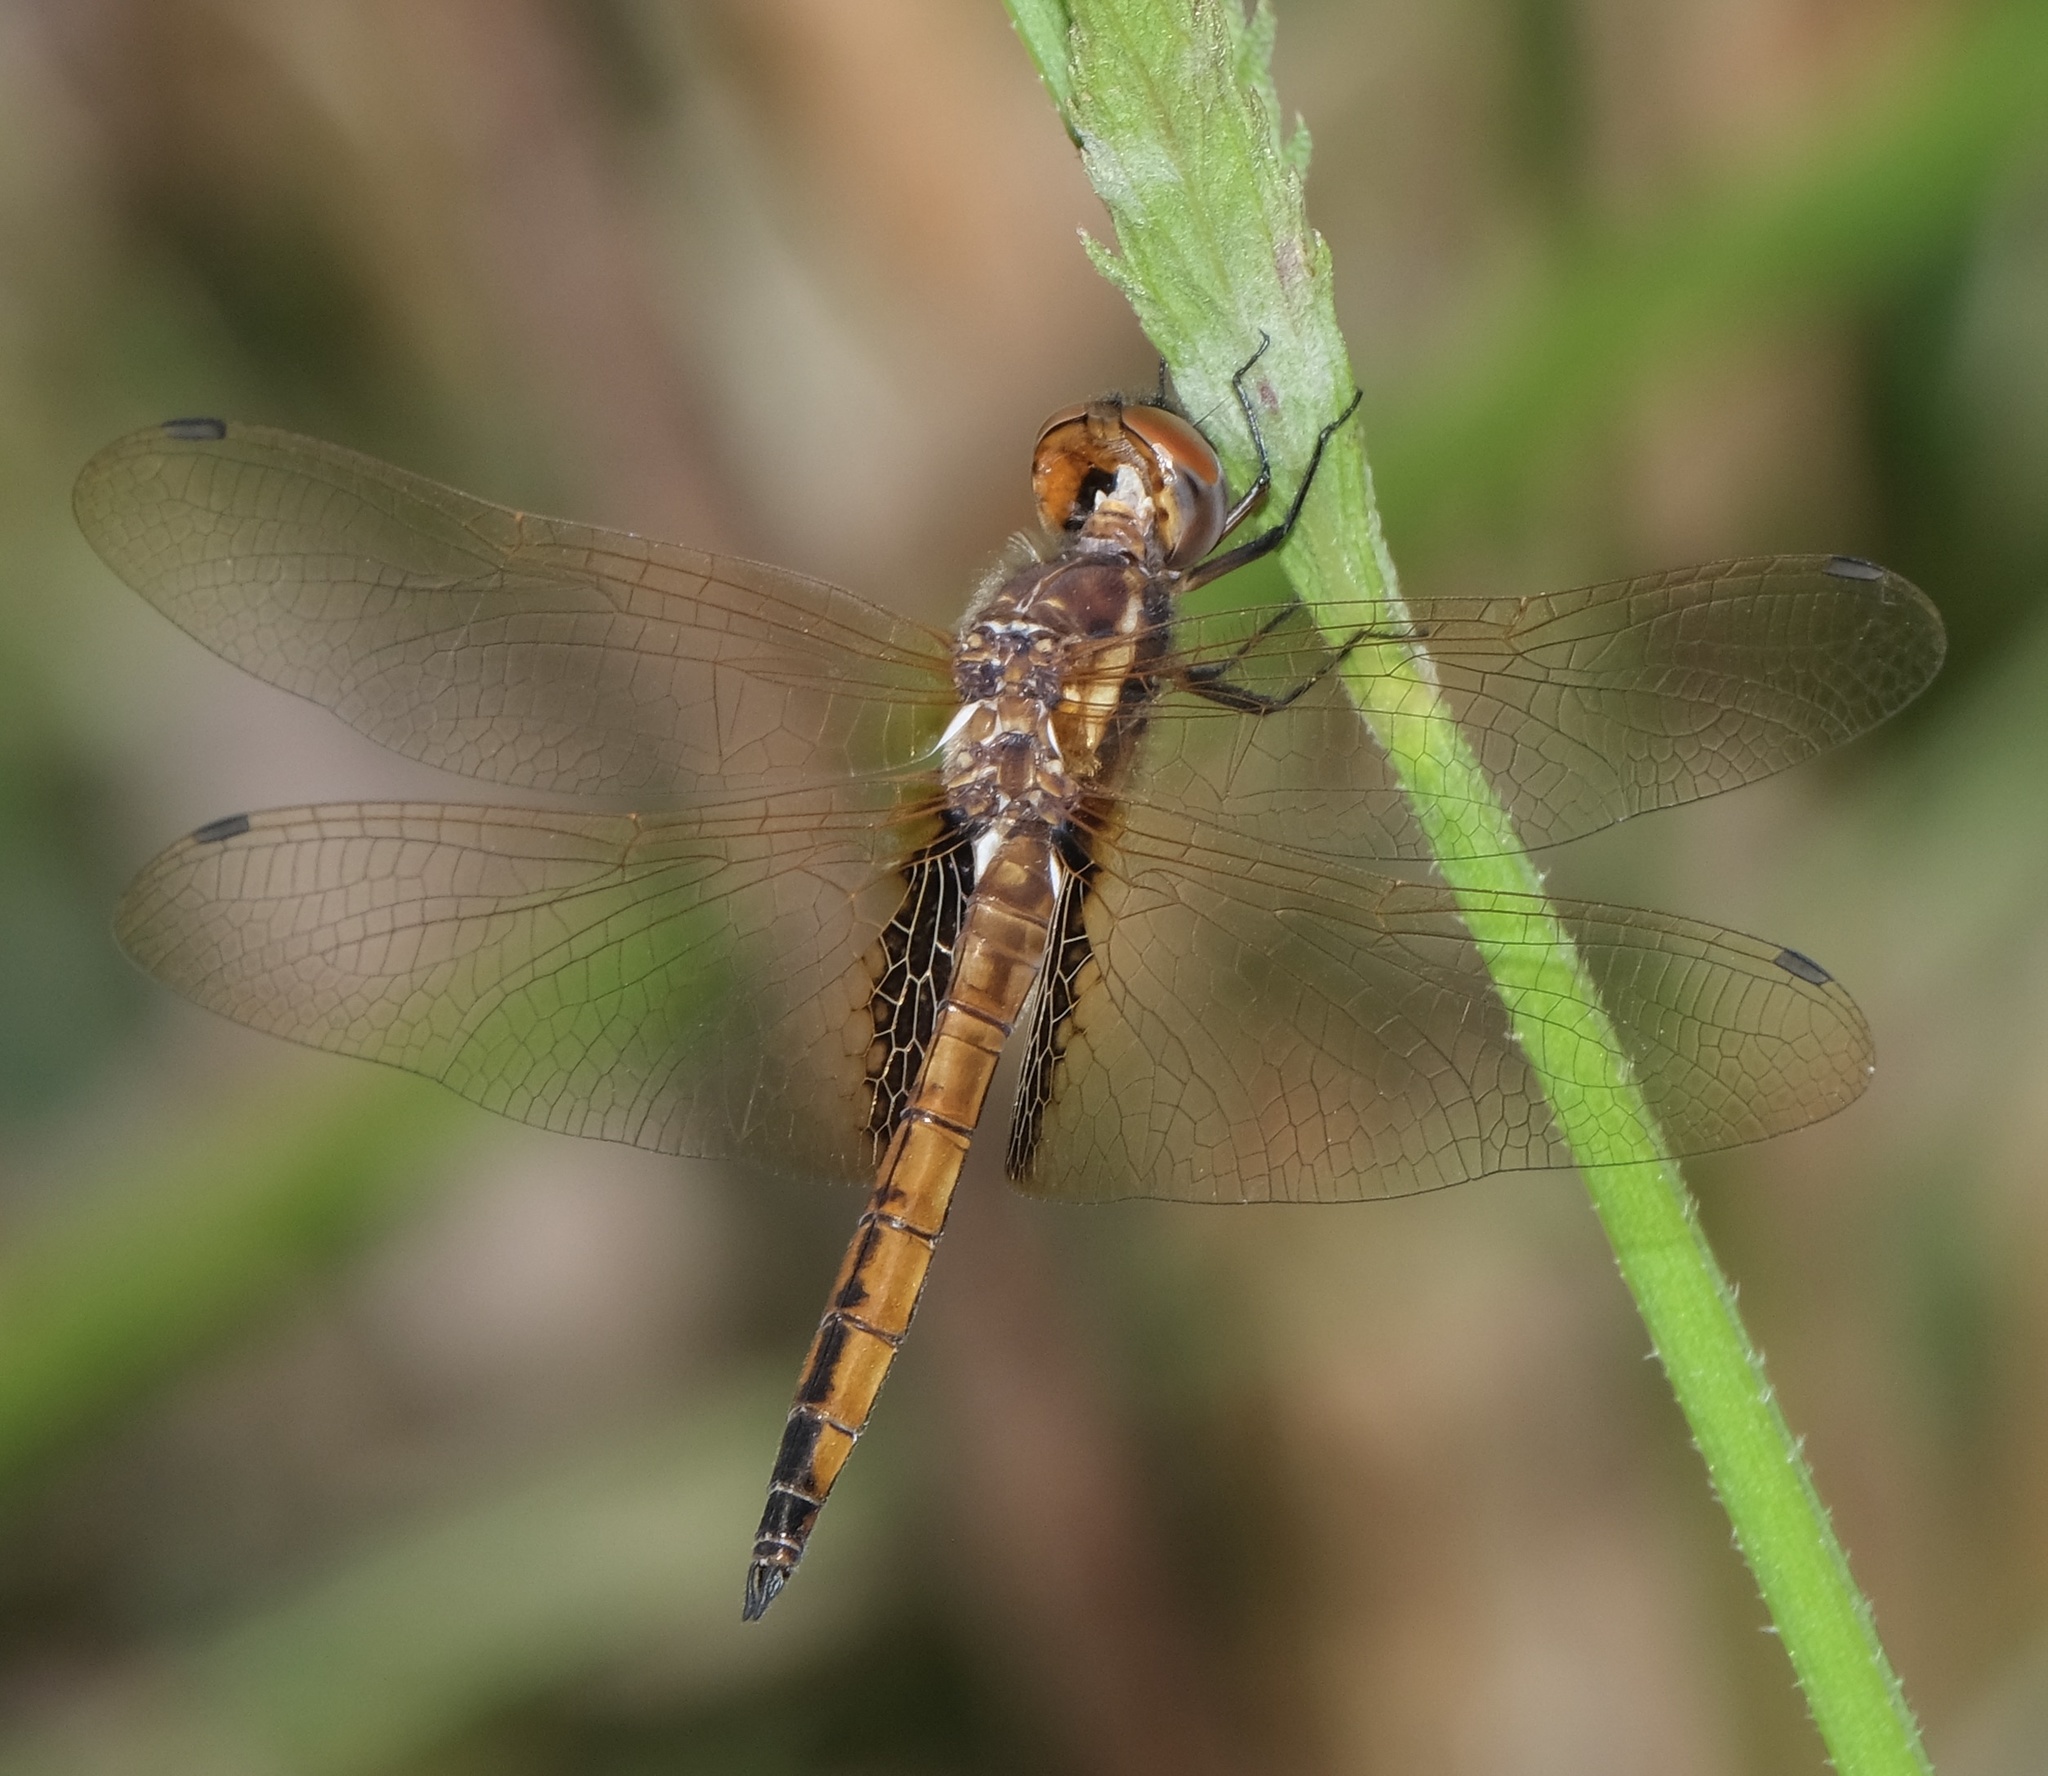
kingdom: Animalia
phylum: Arthropoda
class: Insecta
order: Odonata
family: Libellulidae
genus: Miathyria
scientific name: Miathyria marcella
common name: Hyacinth glider
